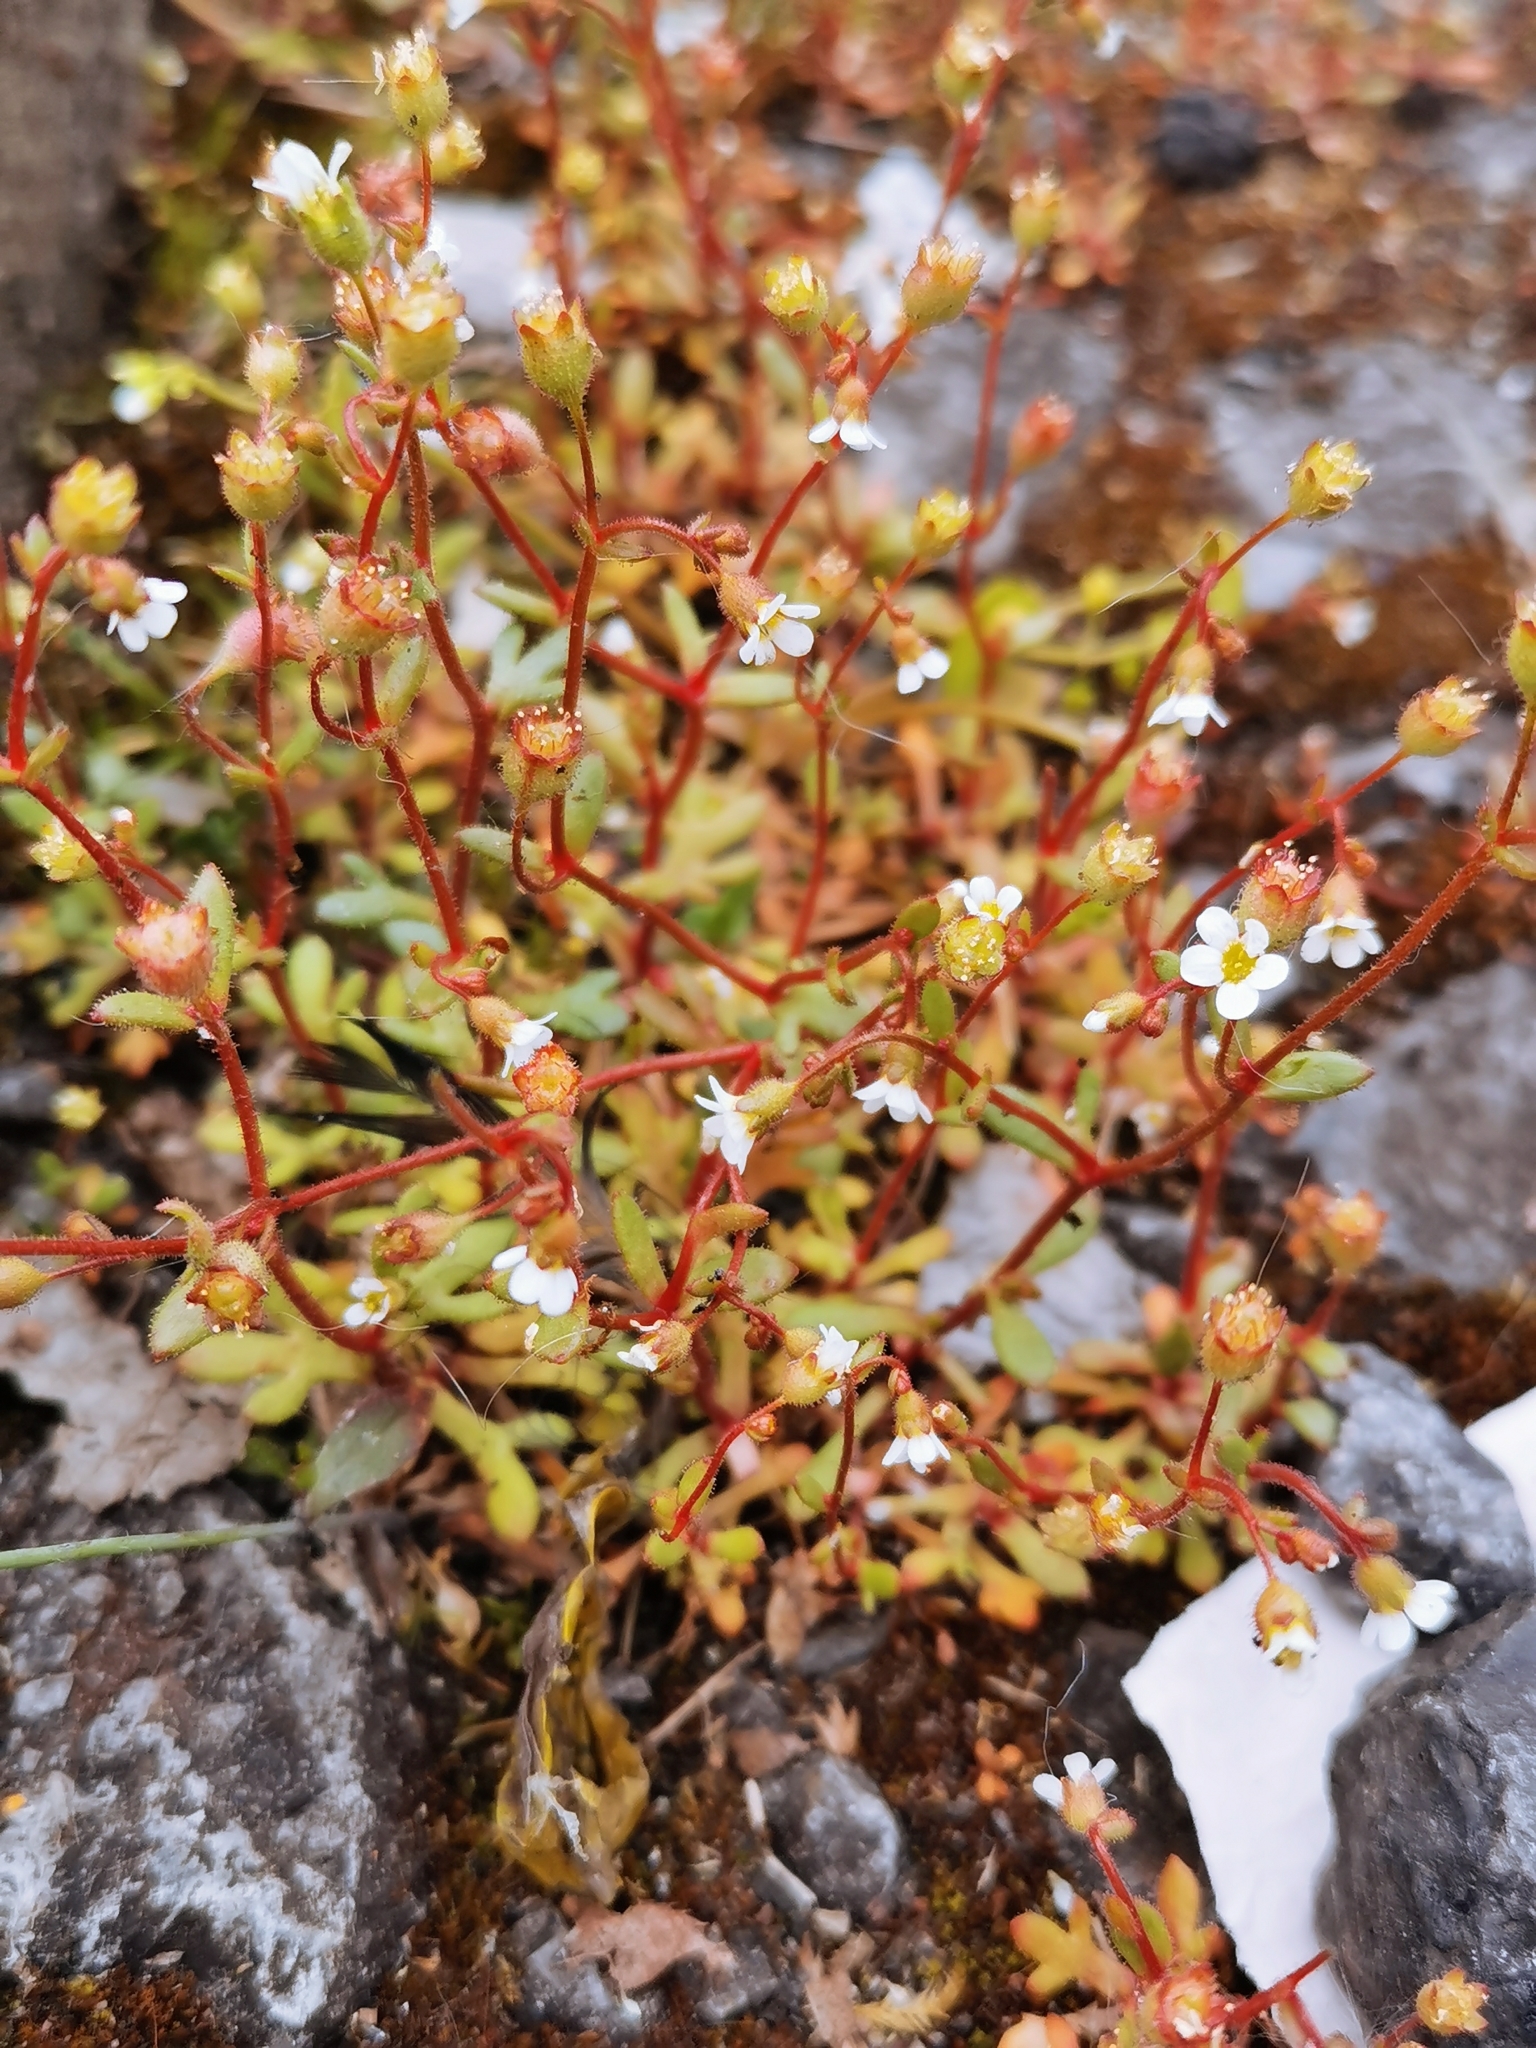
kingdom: Plantae
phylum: Tracheophyta
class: Magnoliopsida
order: Saxifragales
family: Saxifragaceae
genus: Saxifraga
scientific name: Saxifraga tridactylites
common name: Rue-leaved saxifrage
